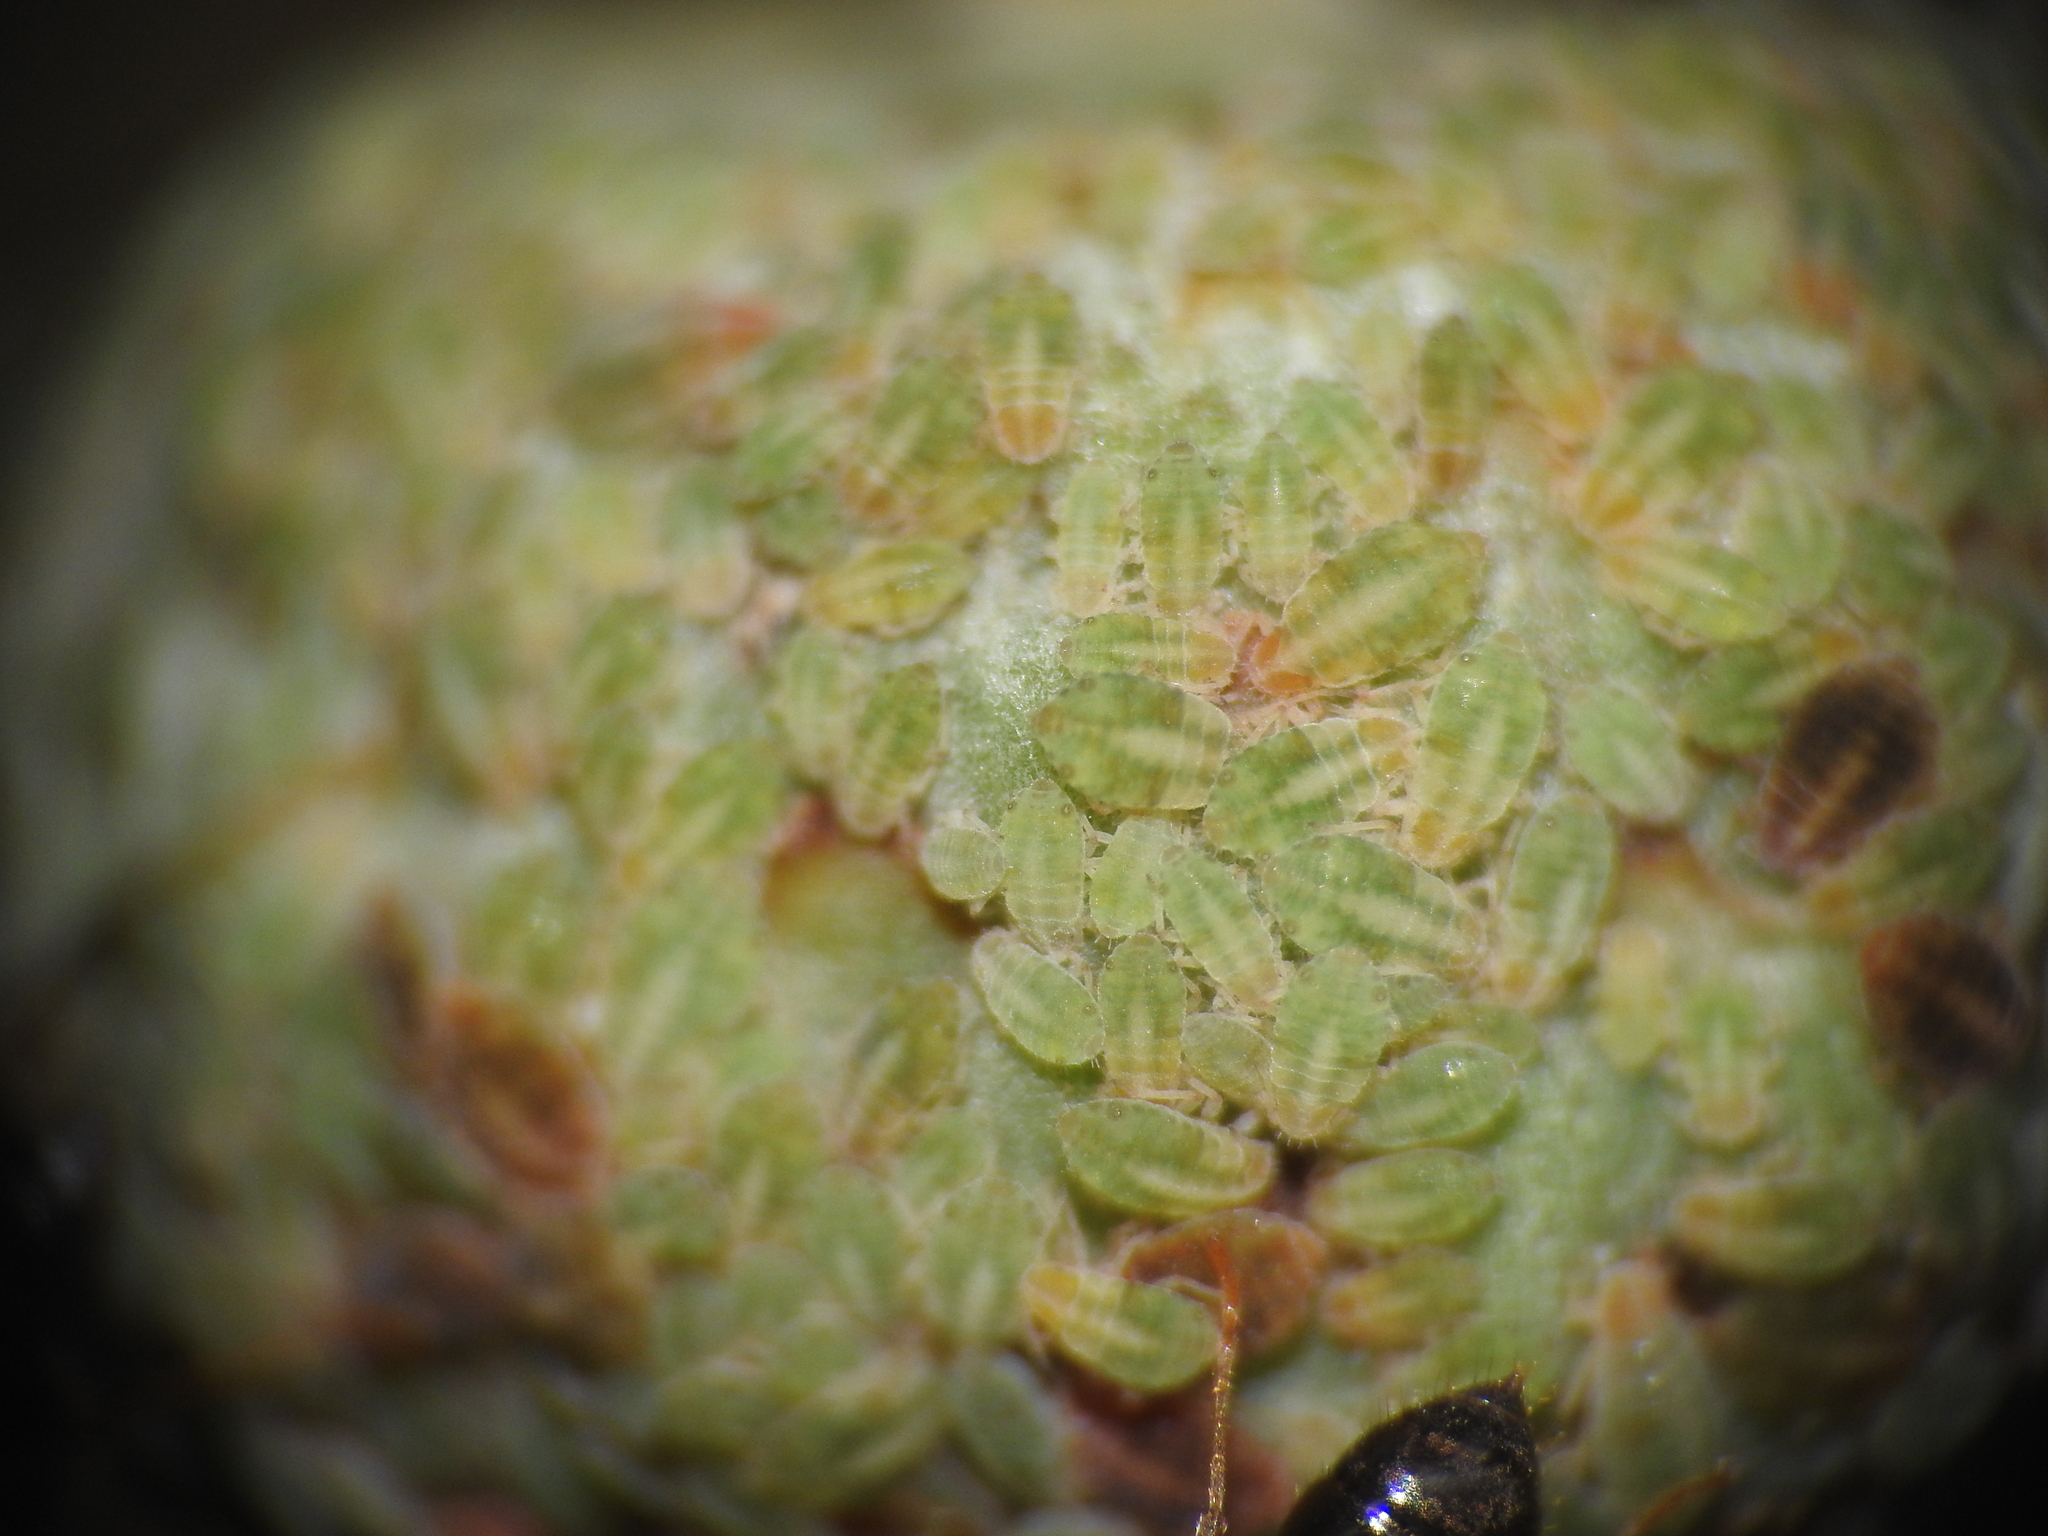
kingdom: Animalia
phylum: Arthropoda
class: Insecta
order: Hemiptera
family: Aphididae
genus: Thelaxes
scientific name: Thelaxes dryophila
